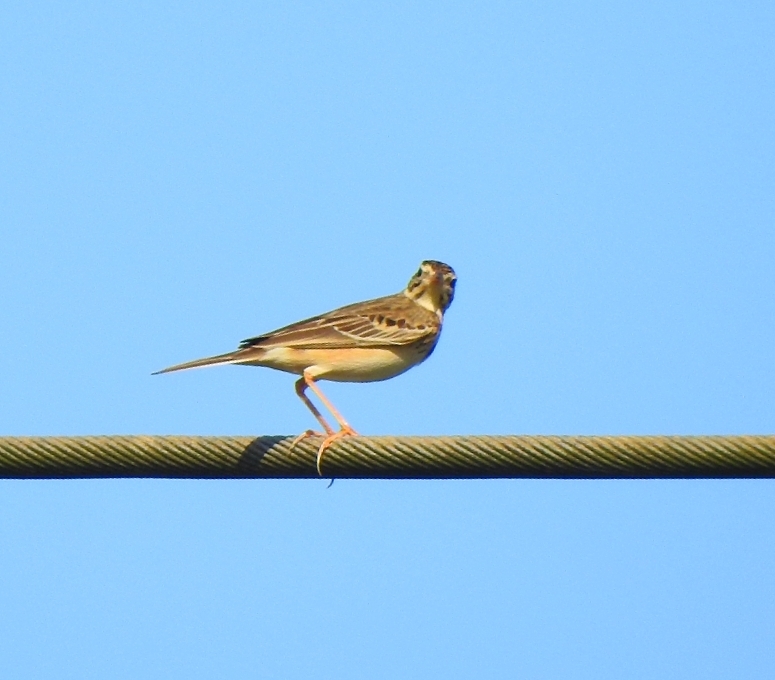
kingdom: Animalia
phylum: Chordata
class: Aves
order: Passeriformes
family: Motacillidae
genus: Anthus
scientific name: Anthus godlewskii
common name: Blyth's pipit
